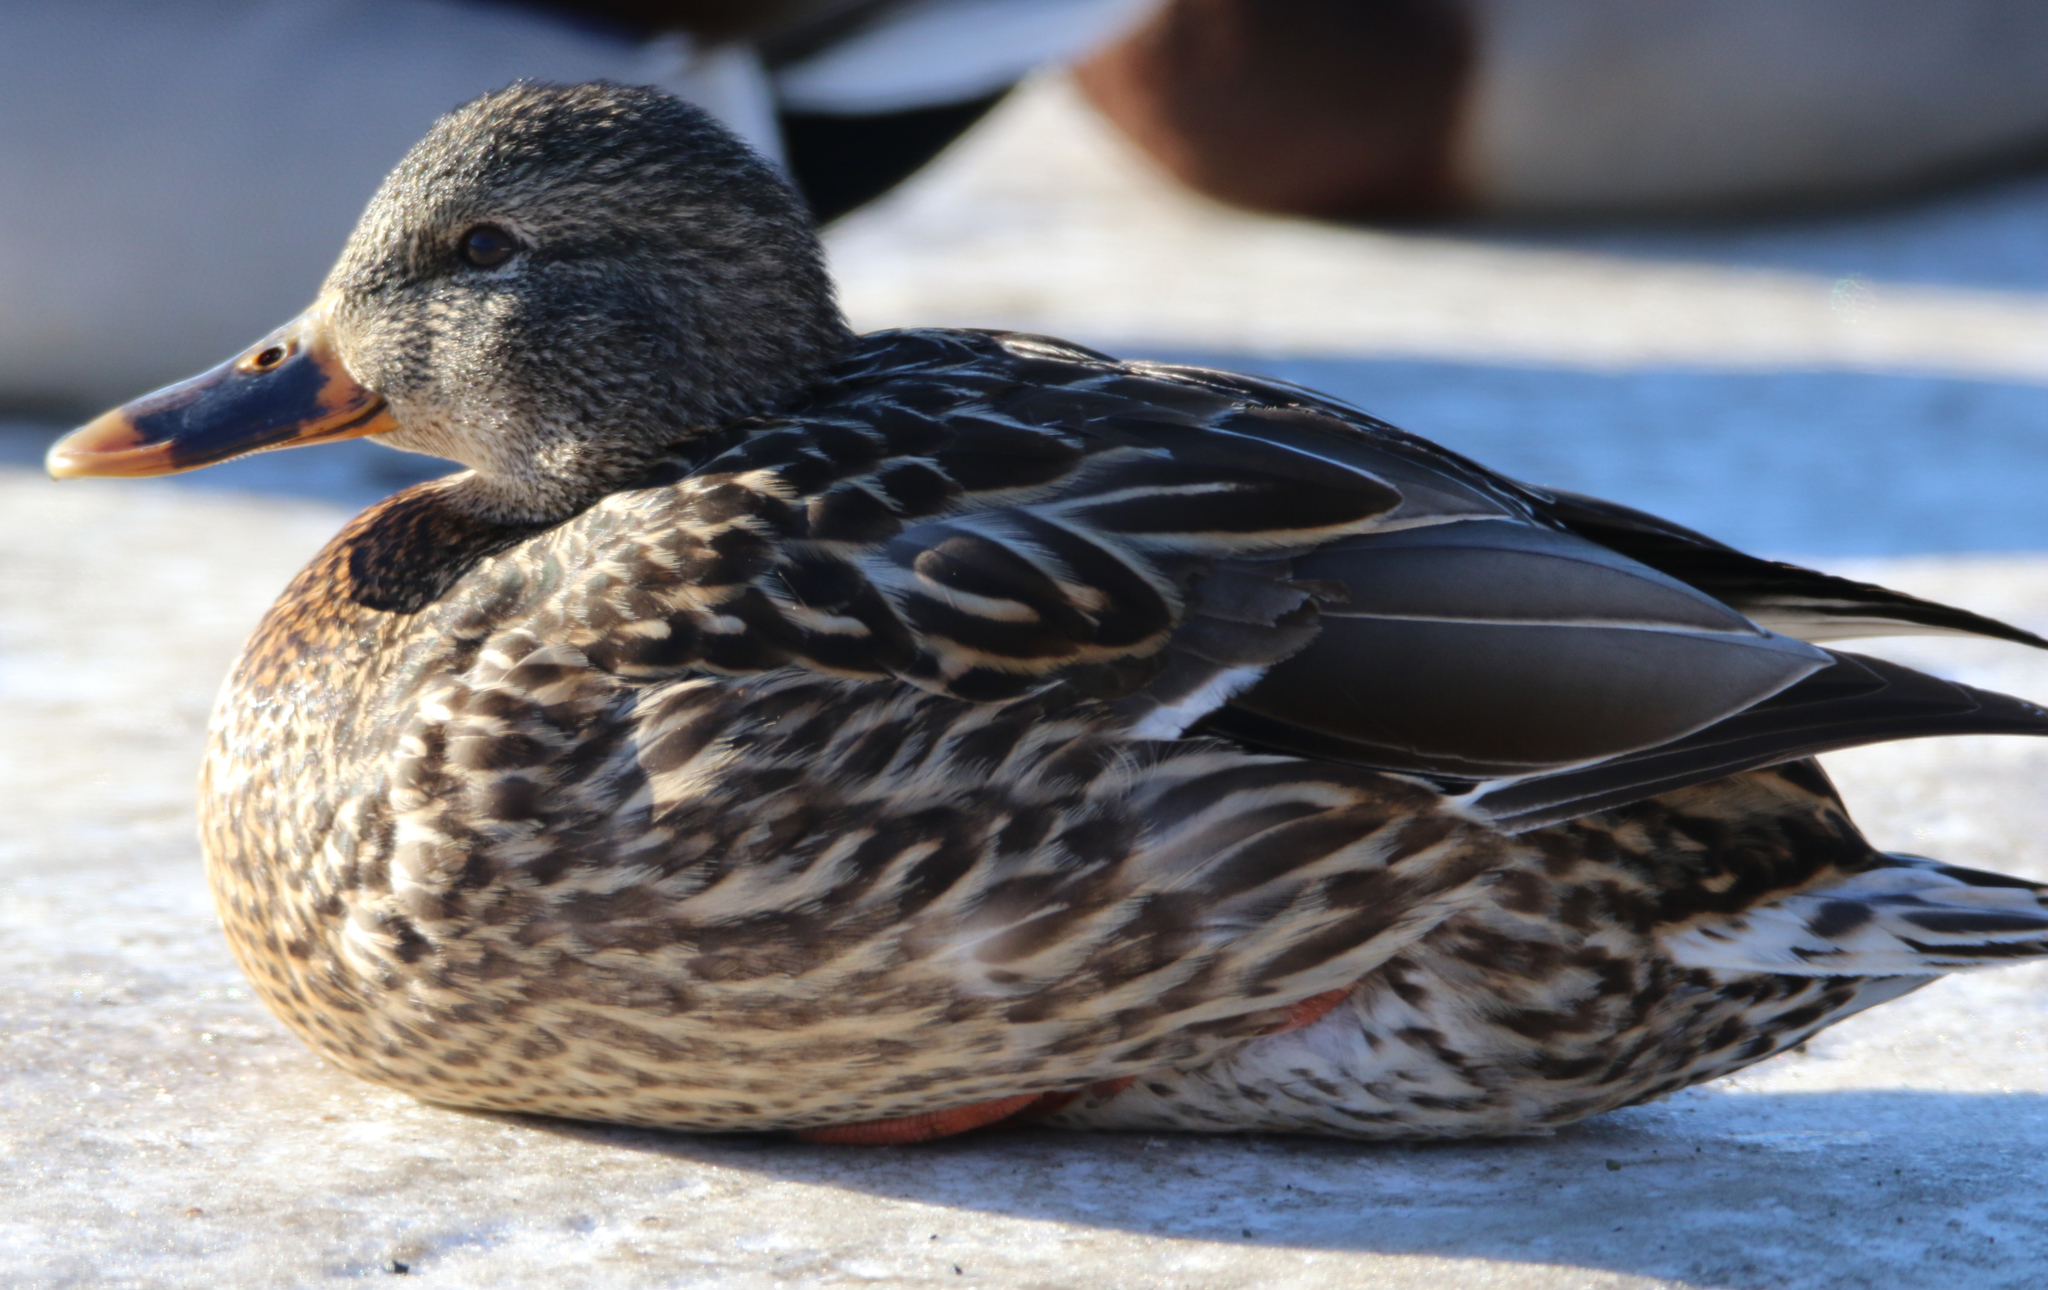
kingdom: Animalia
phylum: Chordata
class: Aves
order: Anseriformes
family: Anatidae
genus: Anas
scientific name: Anas platyrhynchos
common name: Mallard
